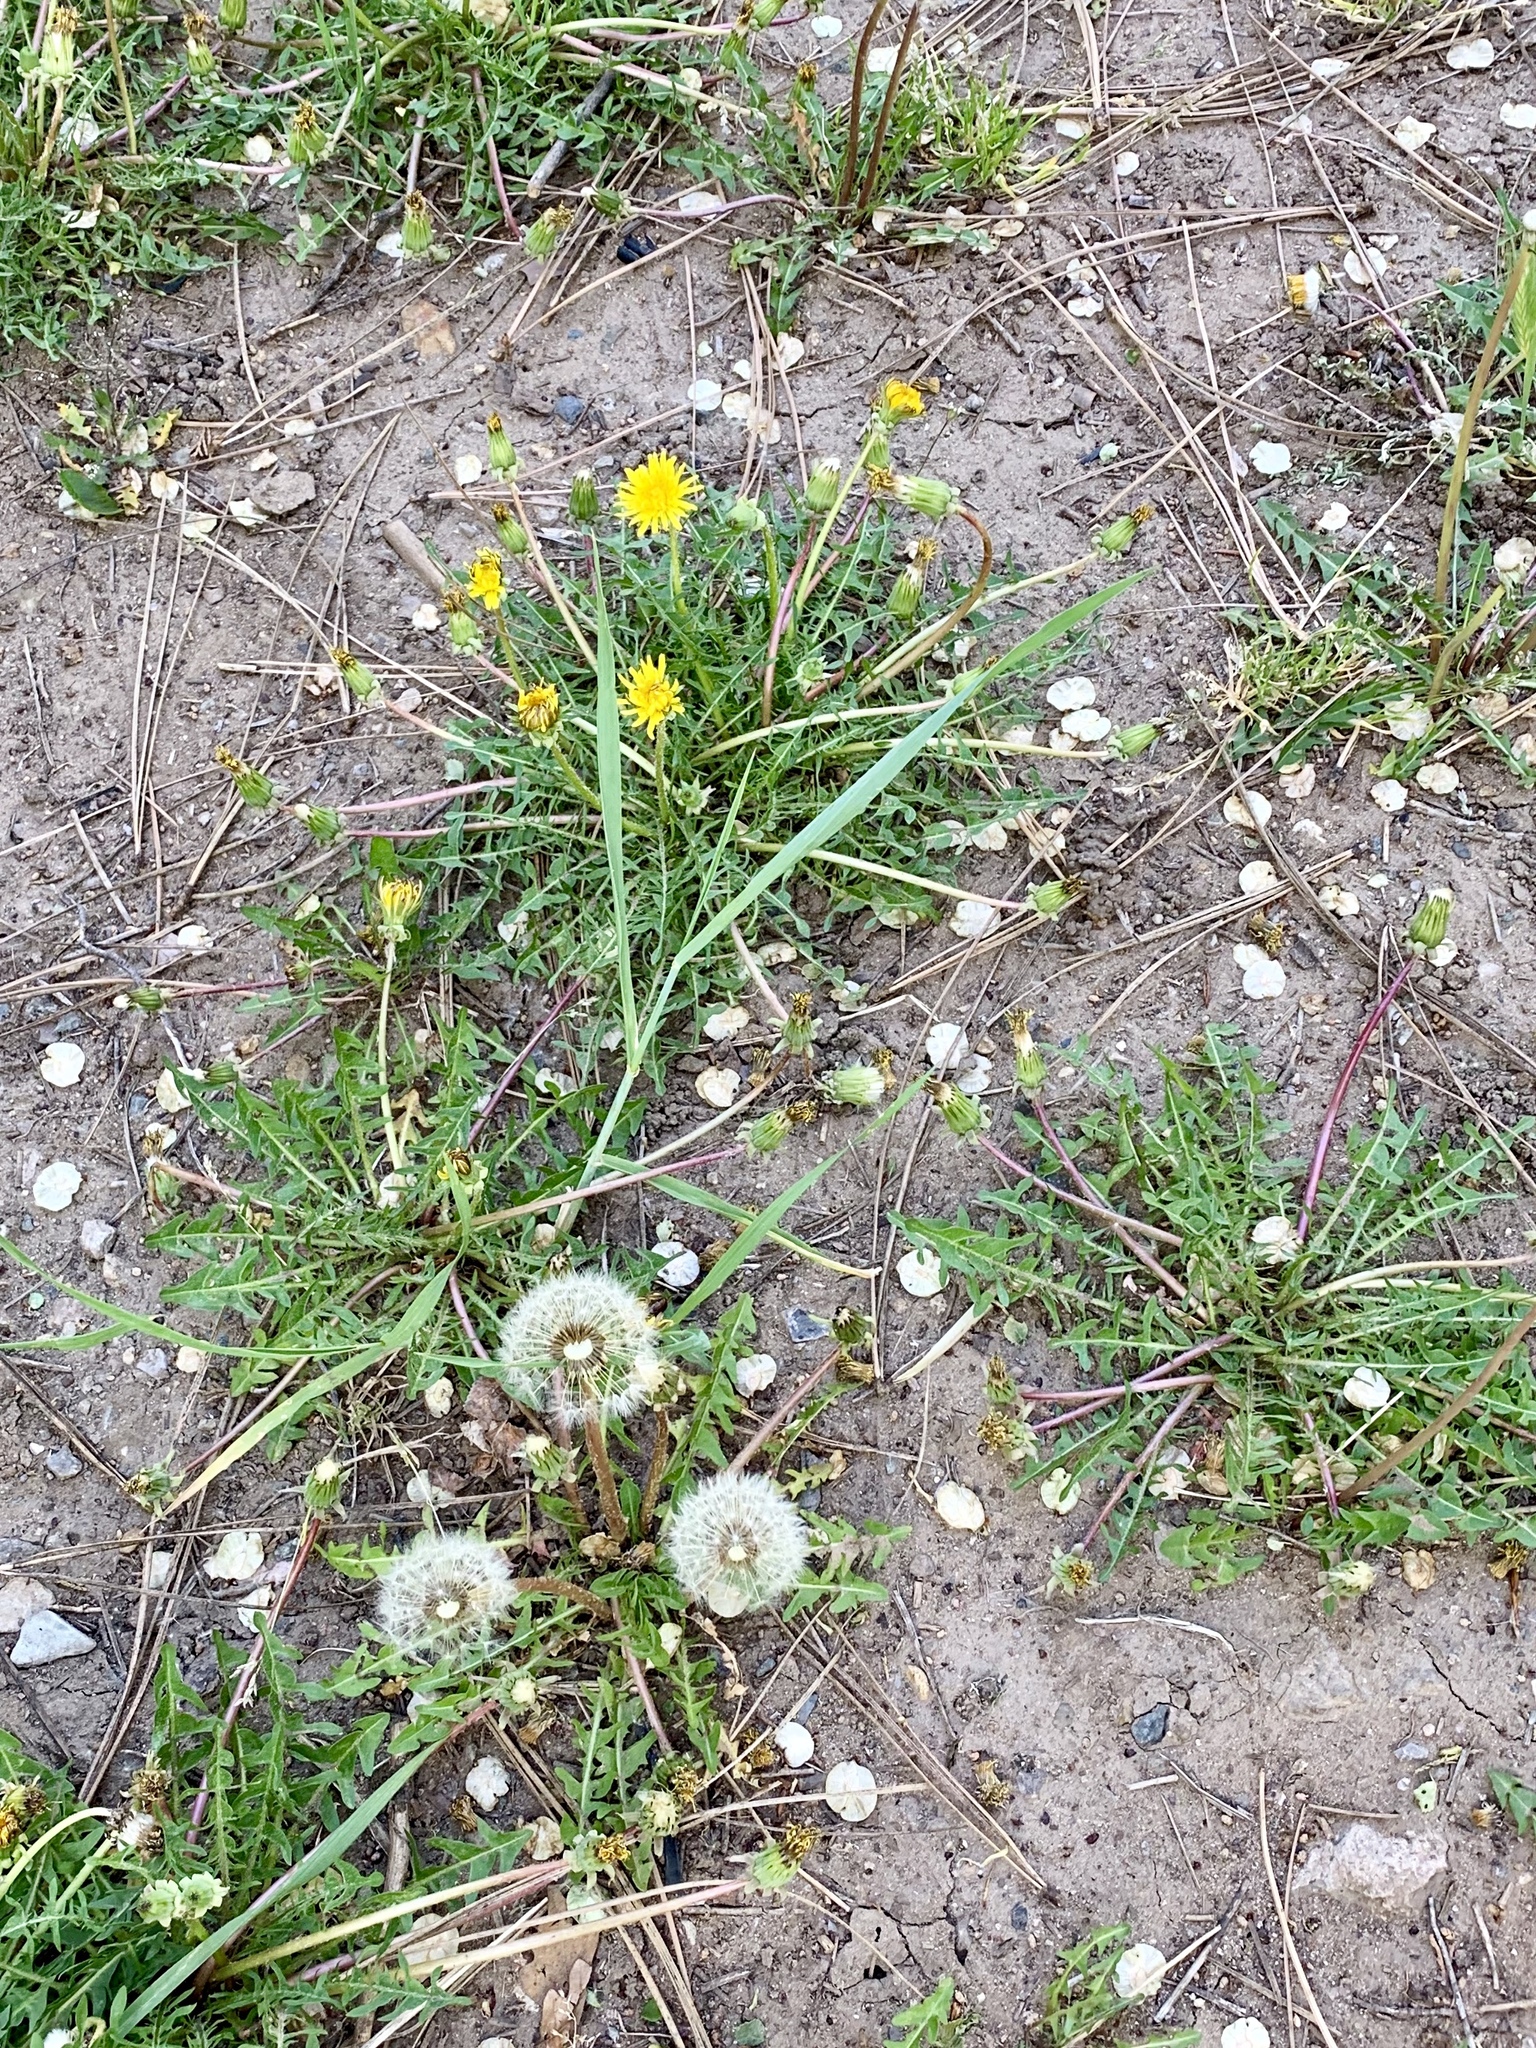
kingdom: Plantae
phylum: Tracheophyta
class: Magnoliopsida
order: Asterales
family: Asteraceae
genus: Taraxacum
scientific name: Taraxacum officinale
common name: Common dandelion
